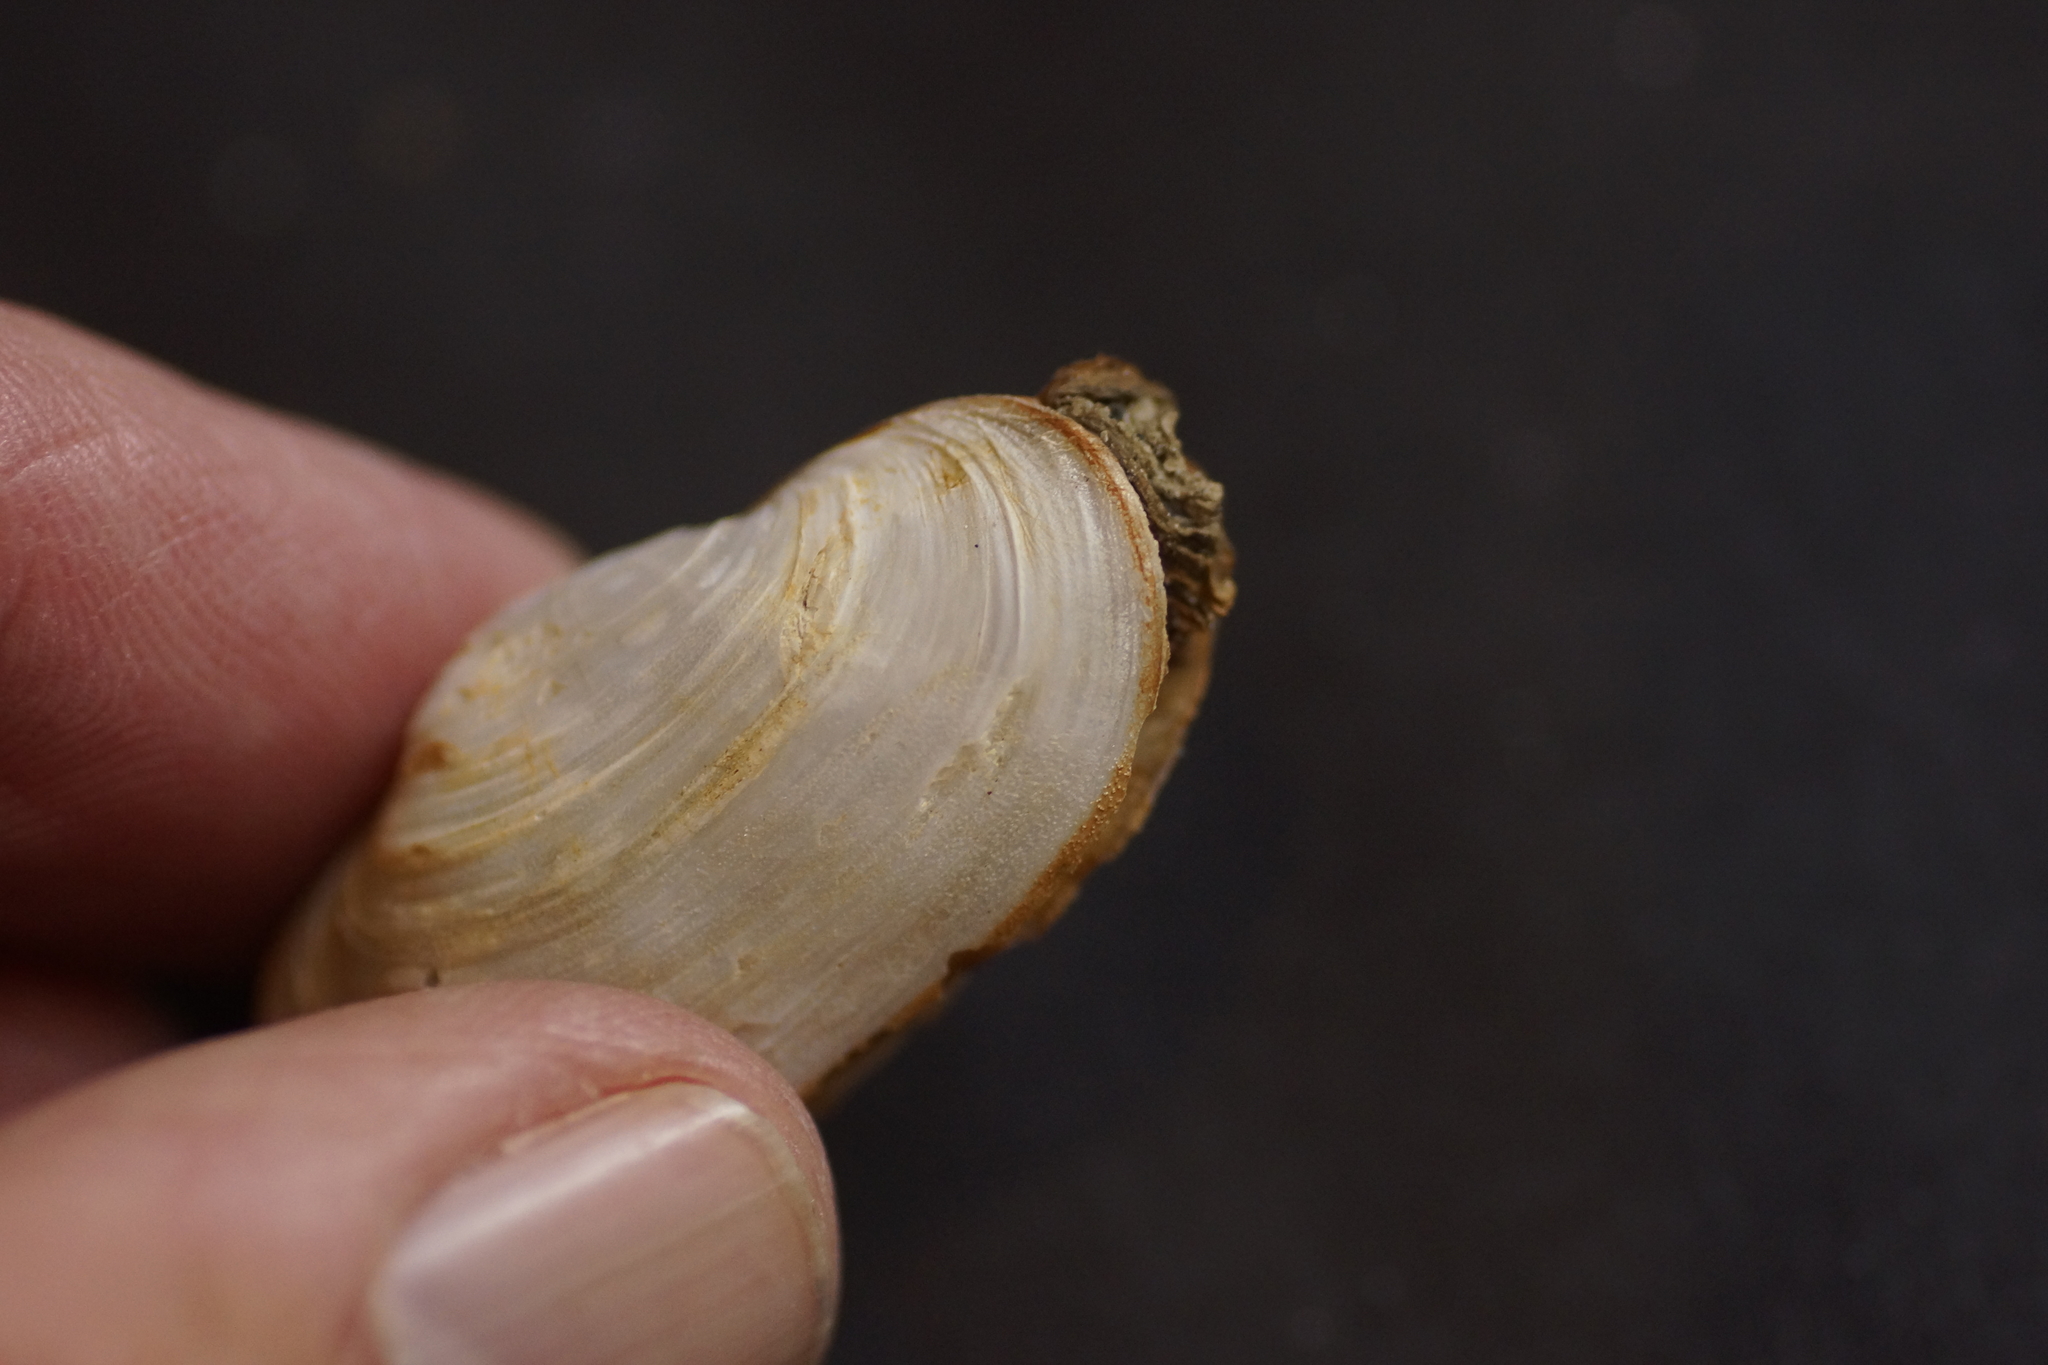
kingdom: Animalia
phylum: Mollusca
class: Bivalvia
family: Laternulidae
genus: Laternula
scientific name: Laternula gracilis
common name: Bivalve
